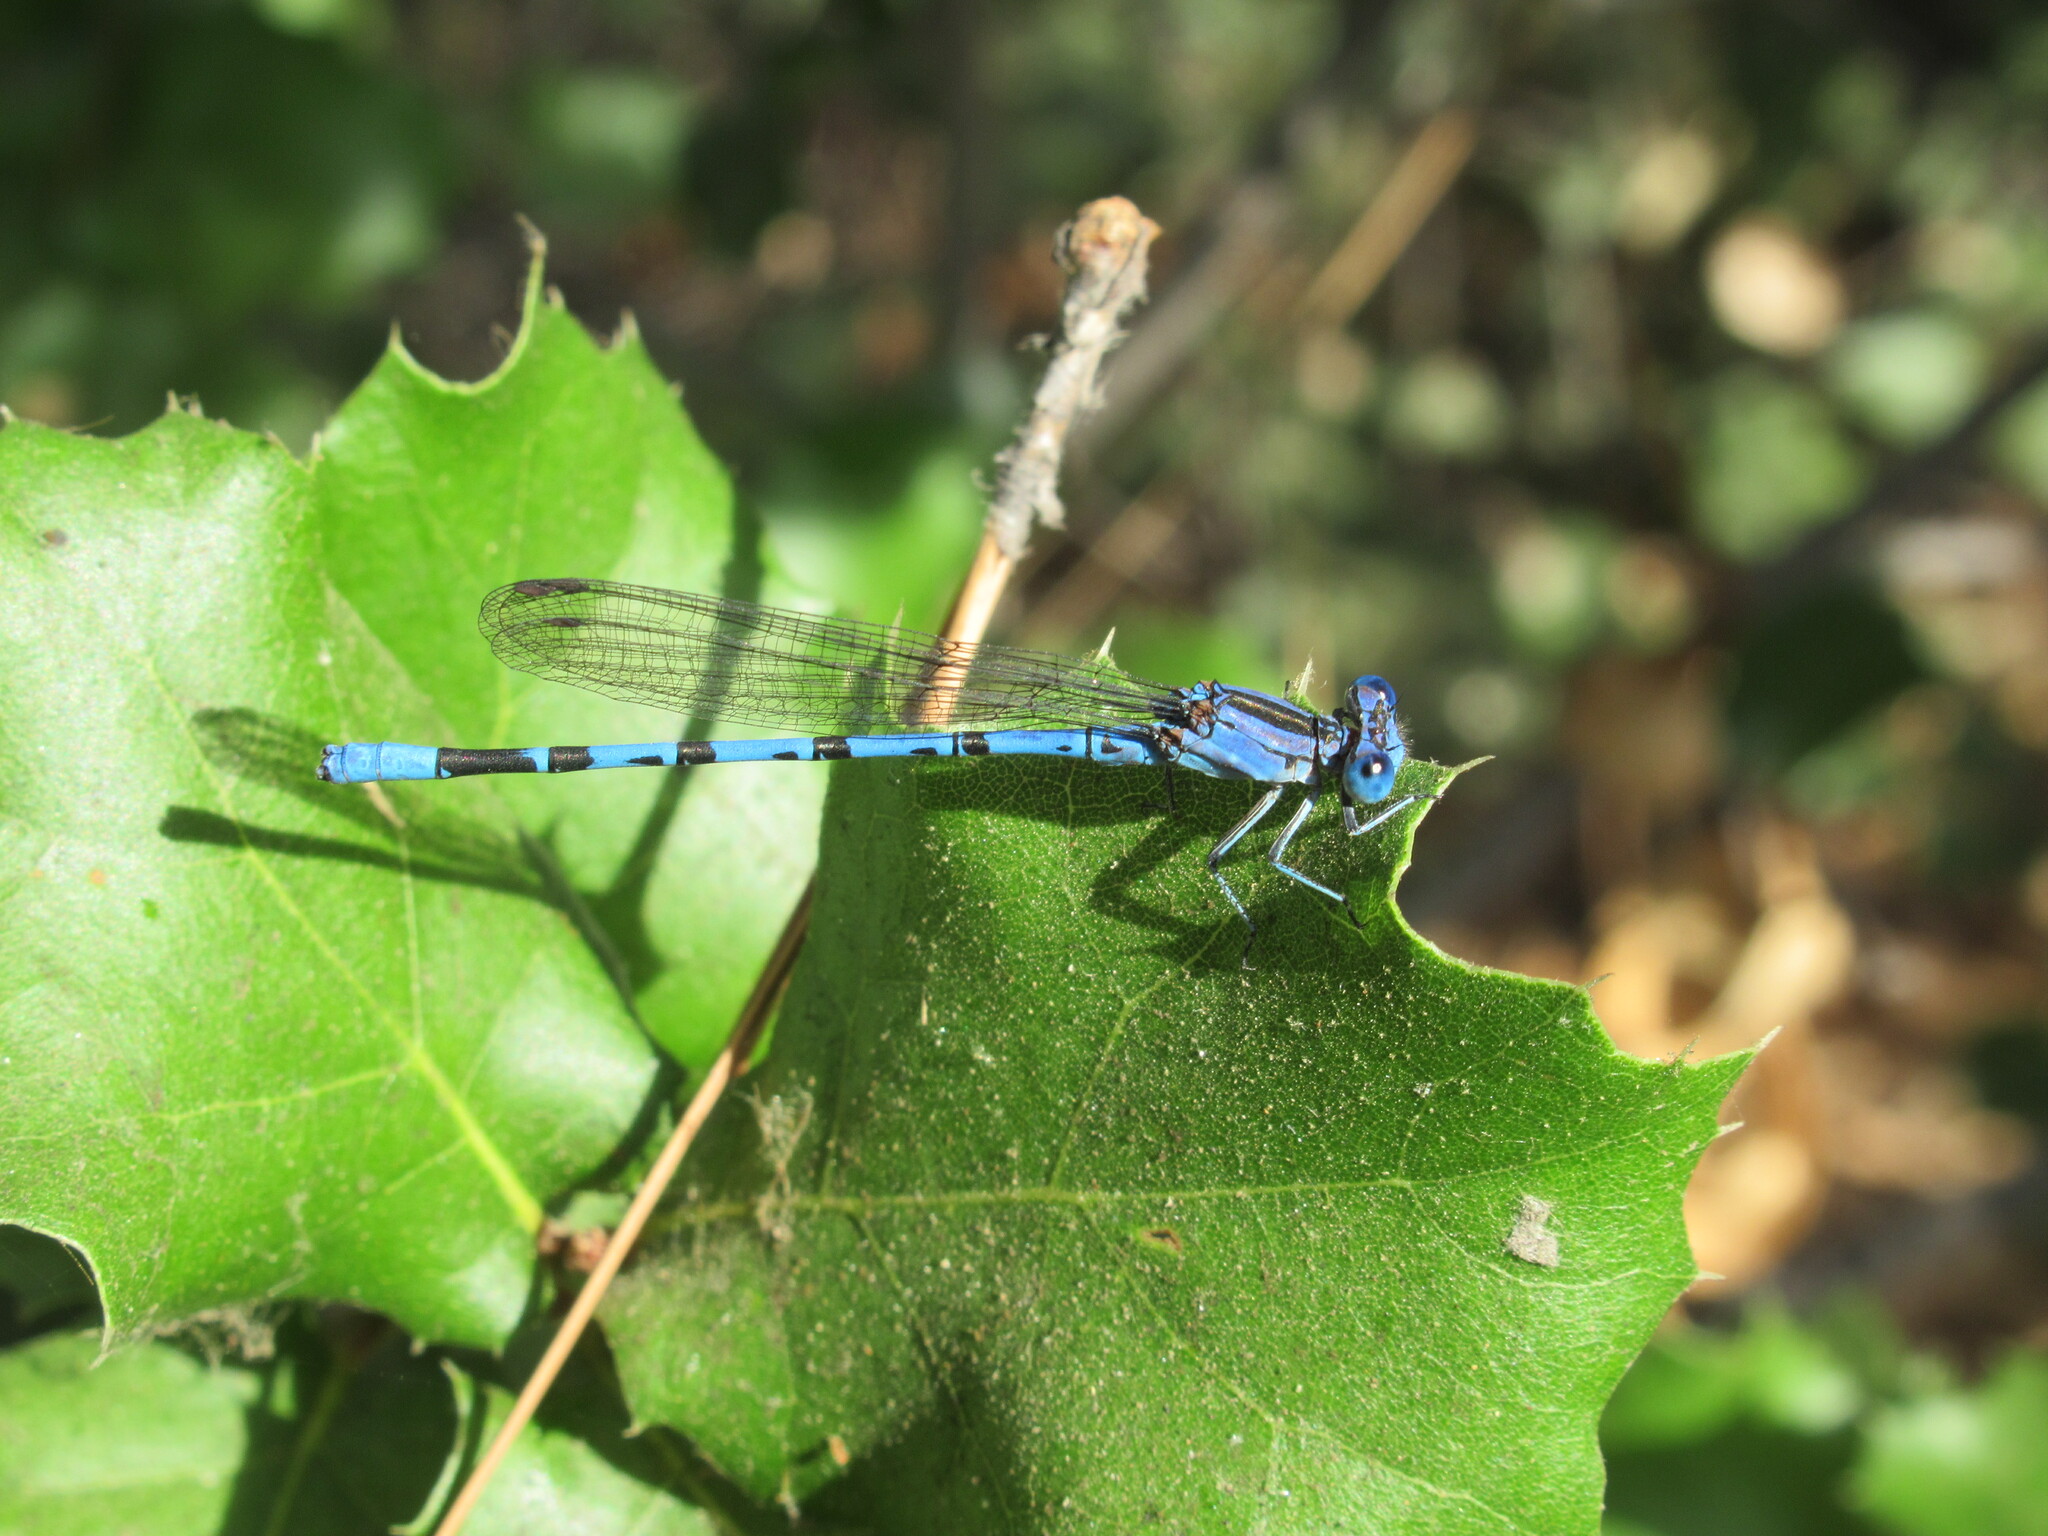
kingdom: Animalia
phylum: Arthropoda
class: Insecta
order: Odonata
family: Coenagrionidae
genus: Argia
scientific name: Argia vivida
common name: Vivid dancer
